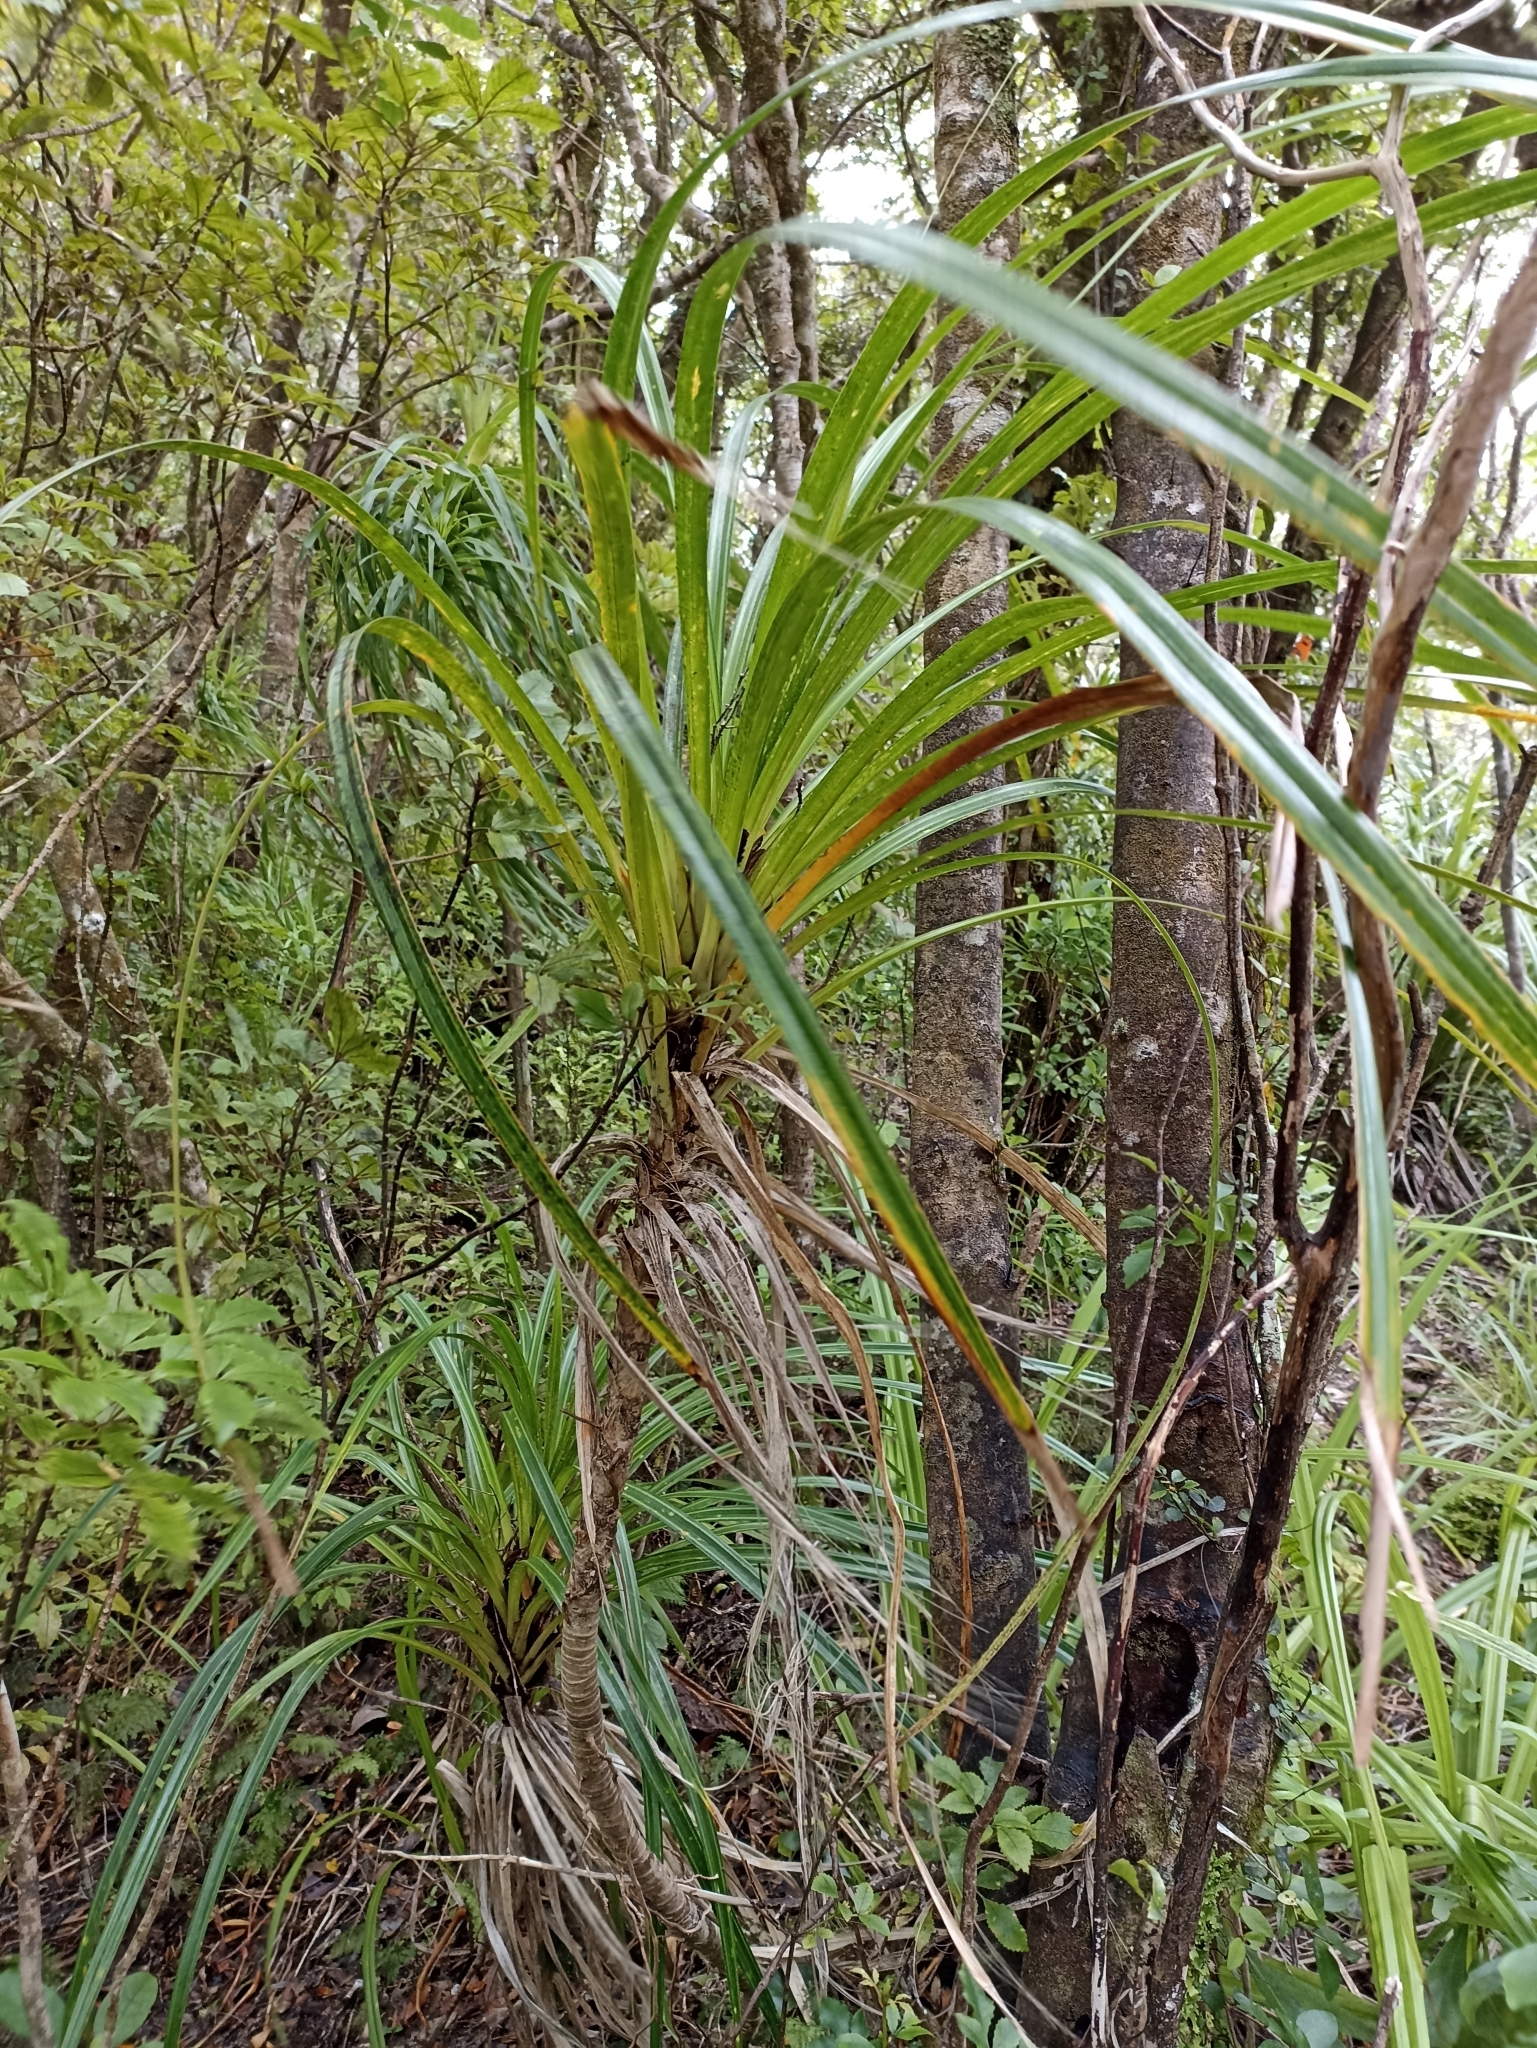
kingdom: Plantae
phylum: Tracheophyta
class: Liliopsida
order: Pandanales
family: Pandanaceae
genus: Freycinetia
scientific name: Freycinetia banksii
